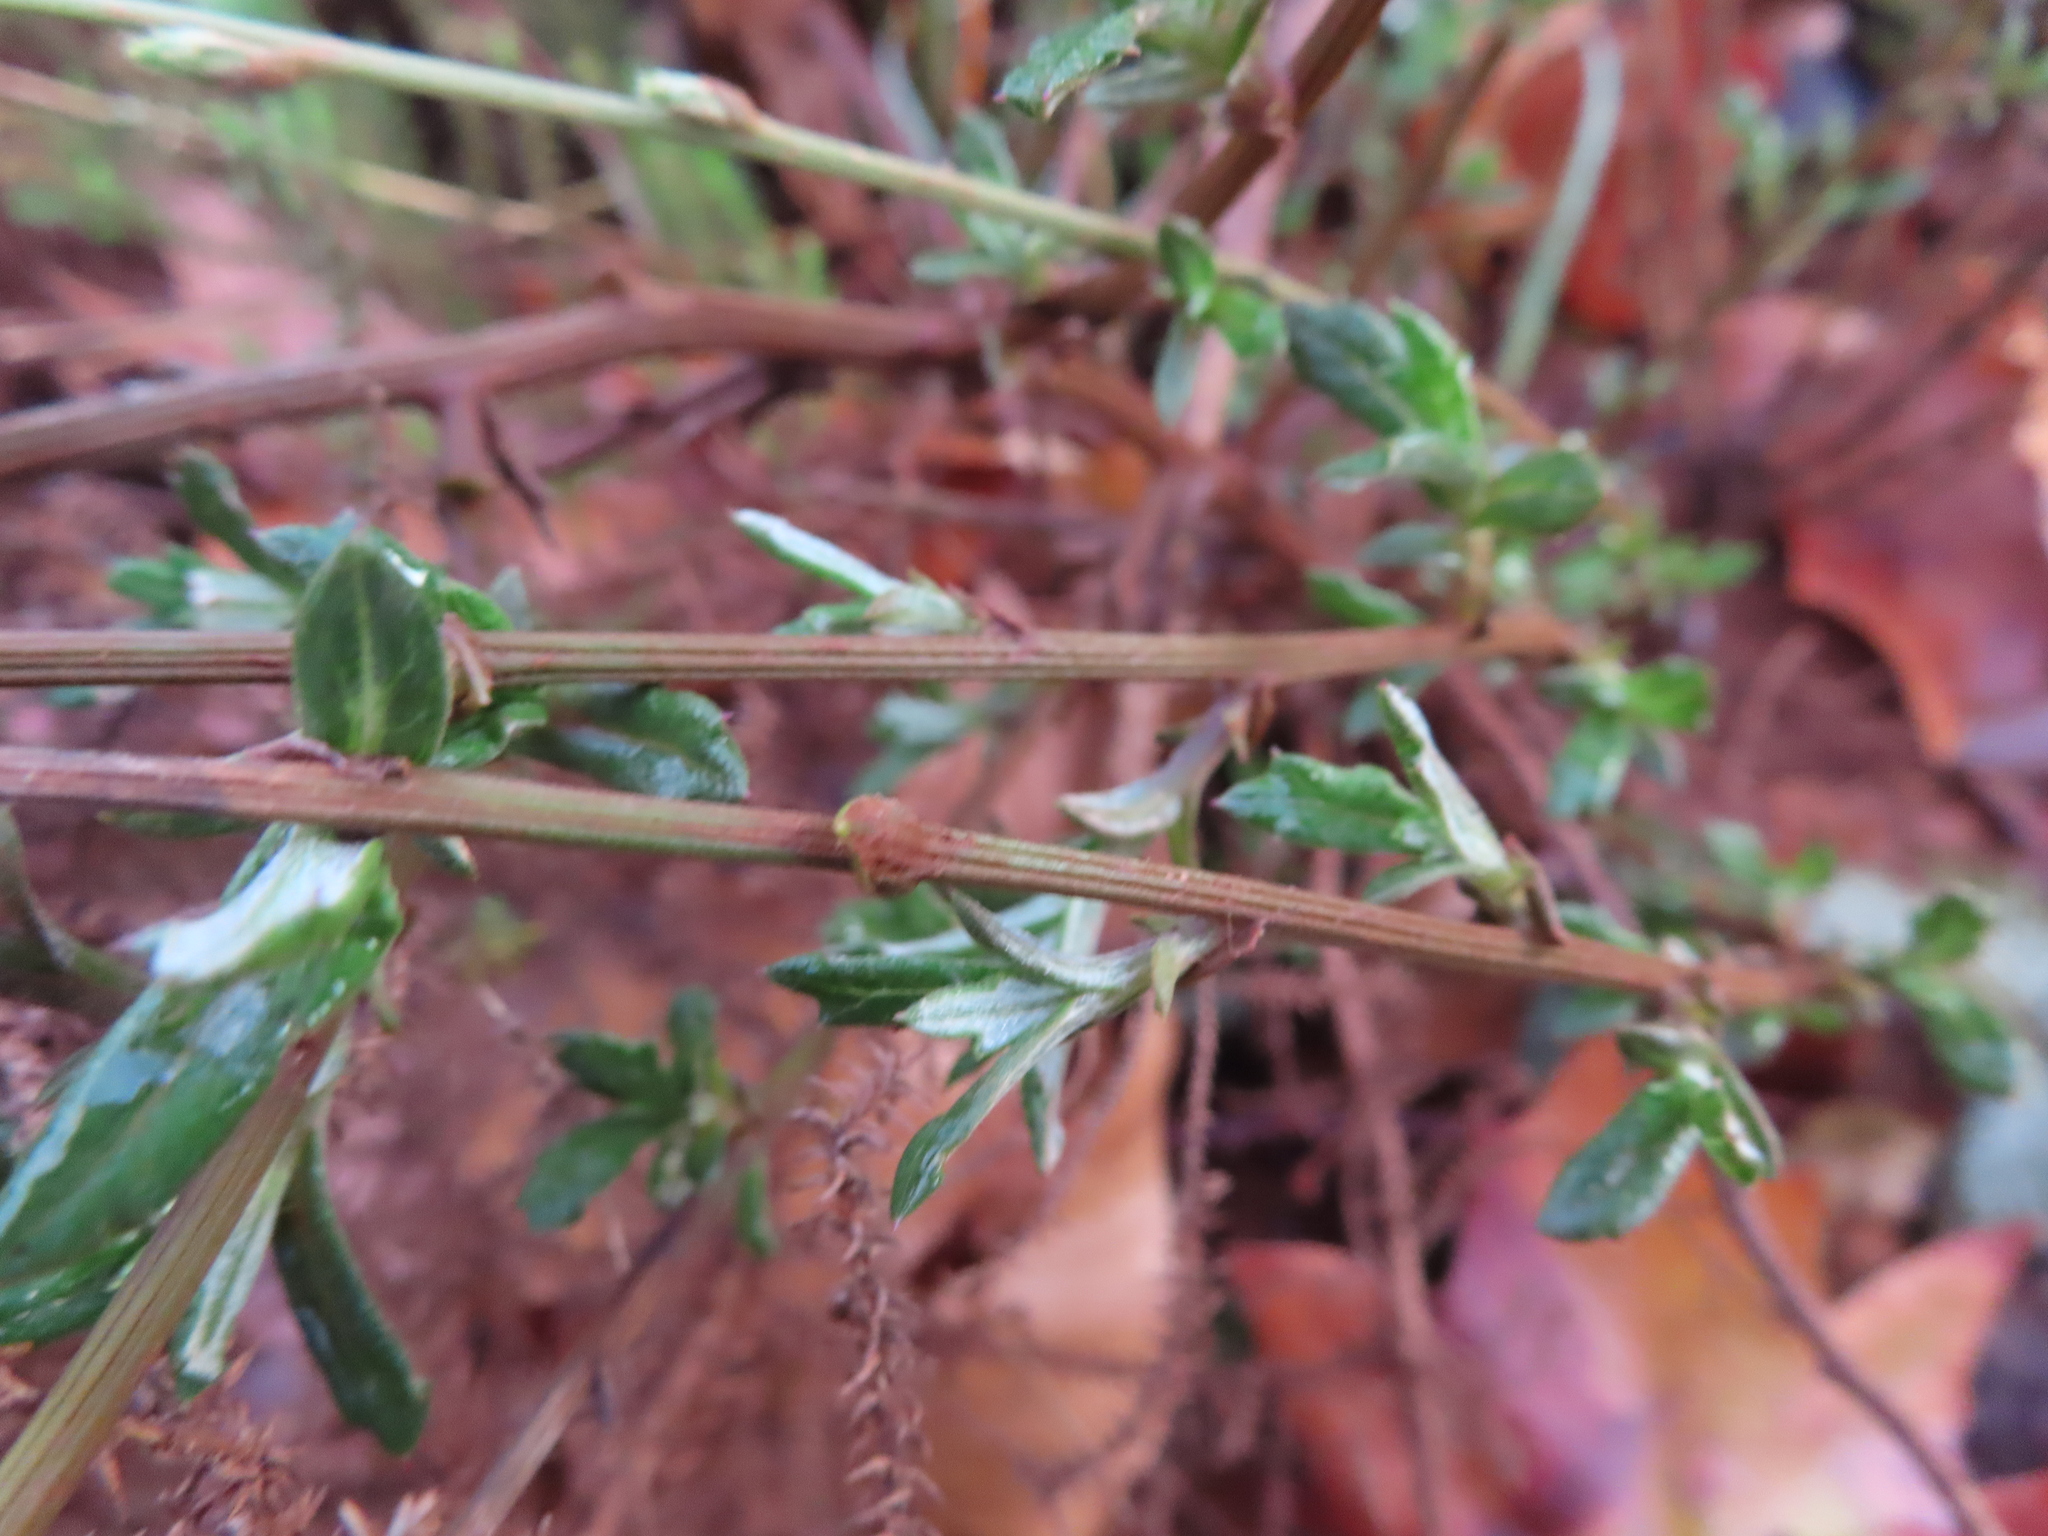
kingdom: Plantae
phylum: Tracheophyta
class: Magnoliopsida
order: Asterales
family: Asteraceae
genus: Senecio
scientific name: Senecio pubigerus
